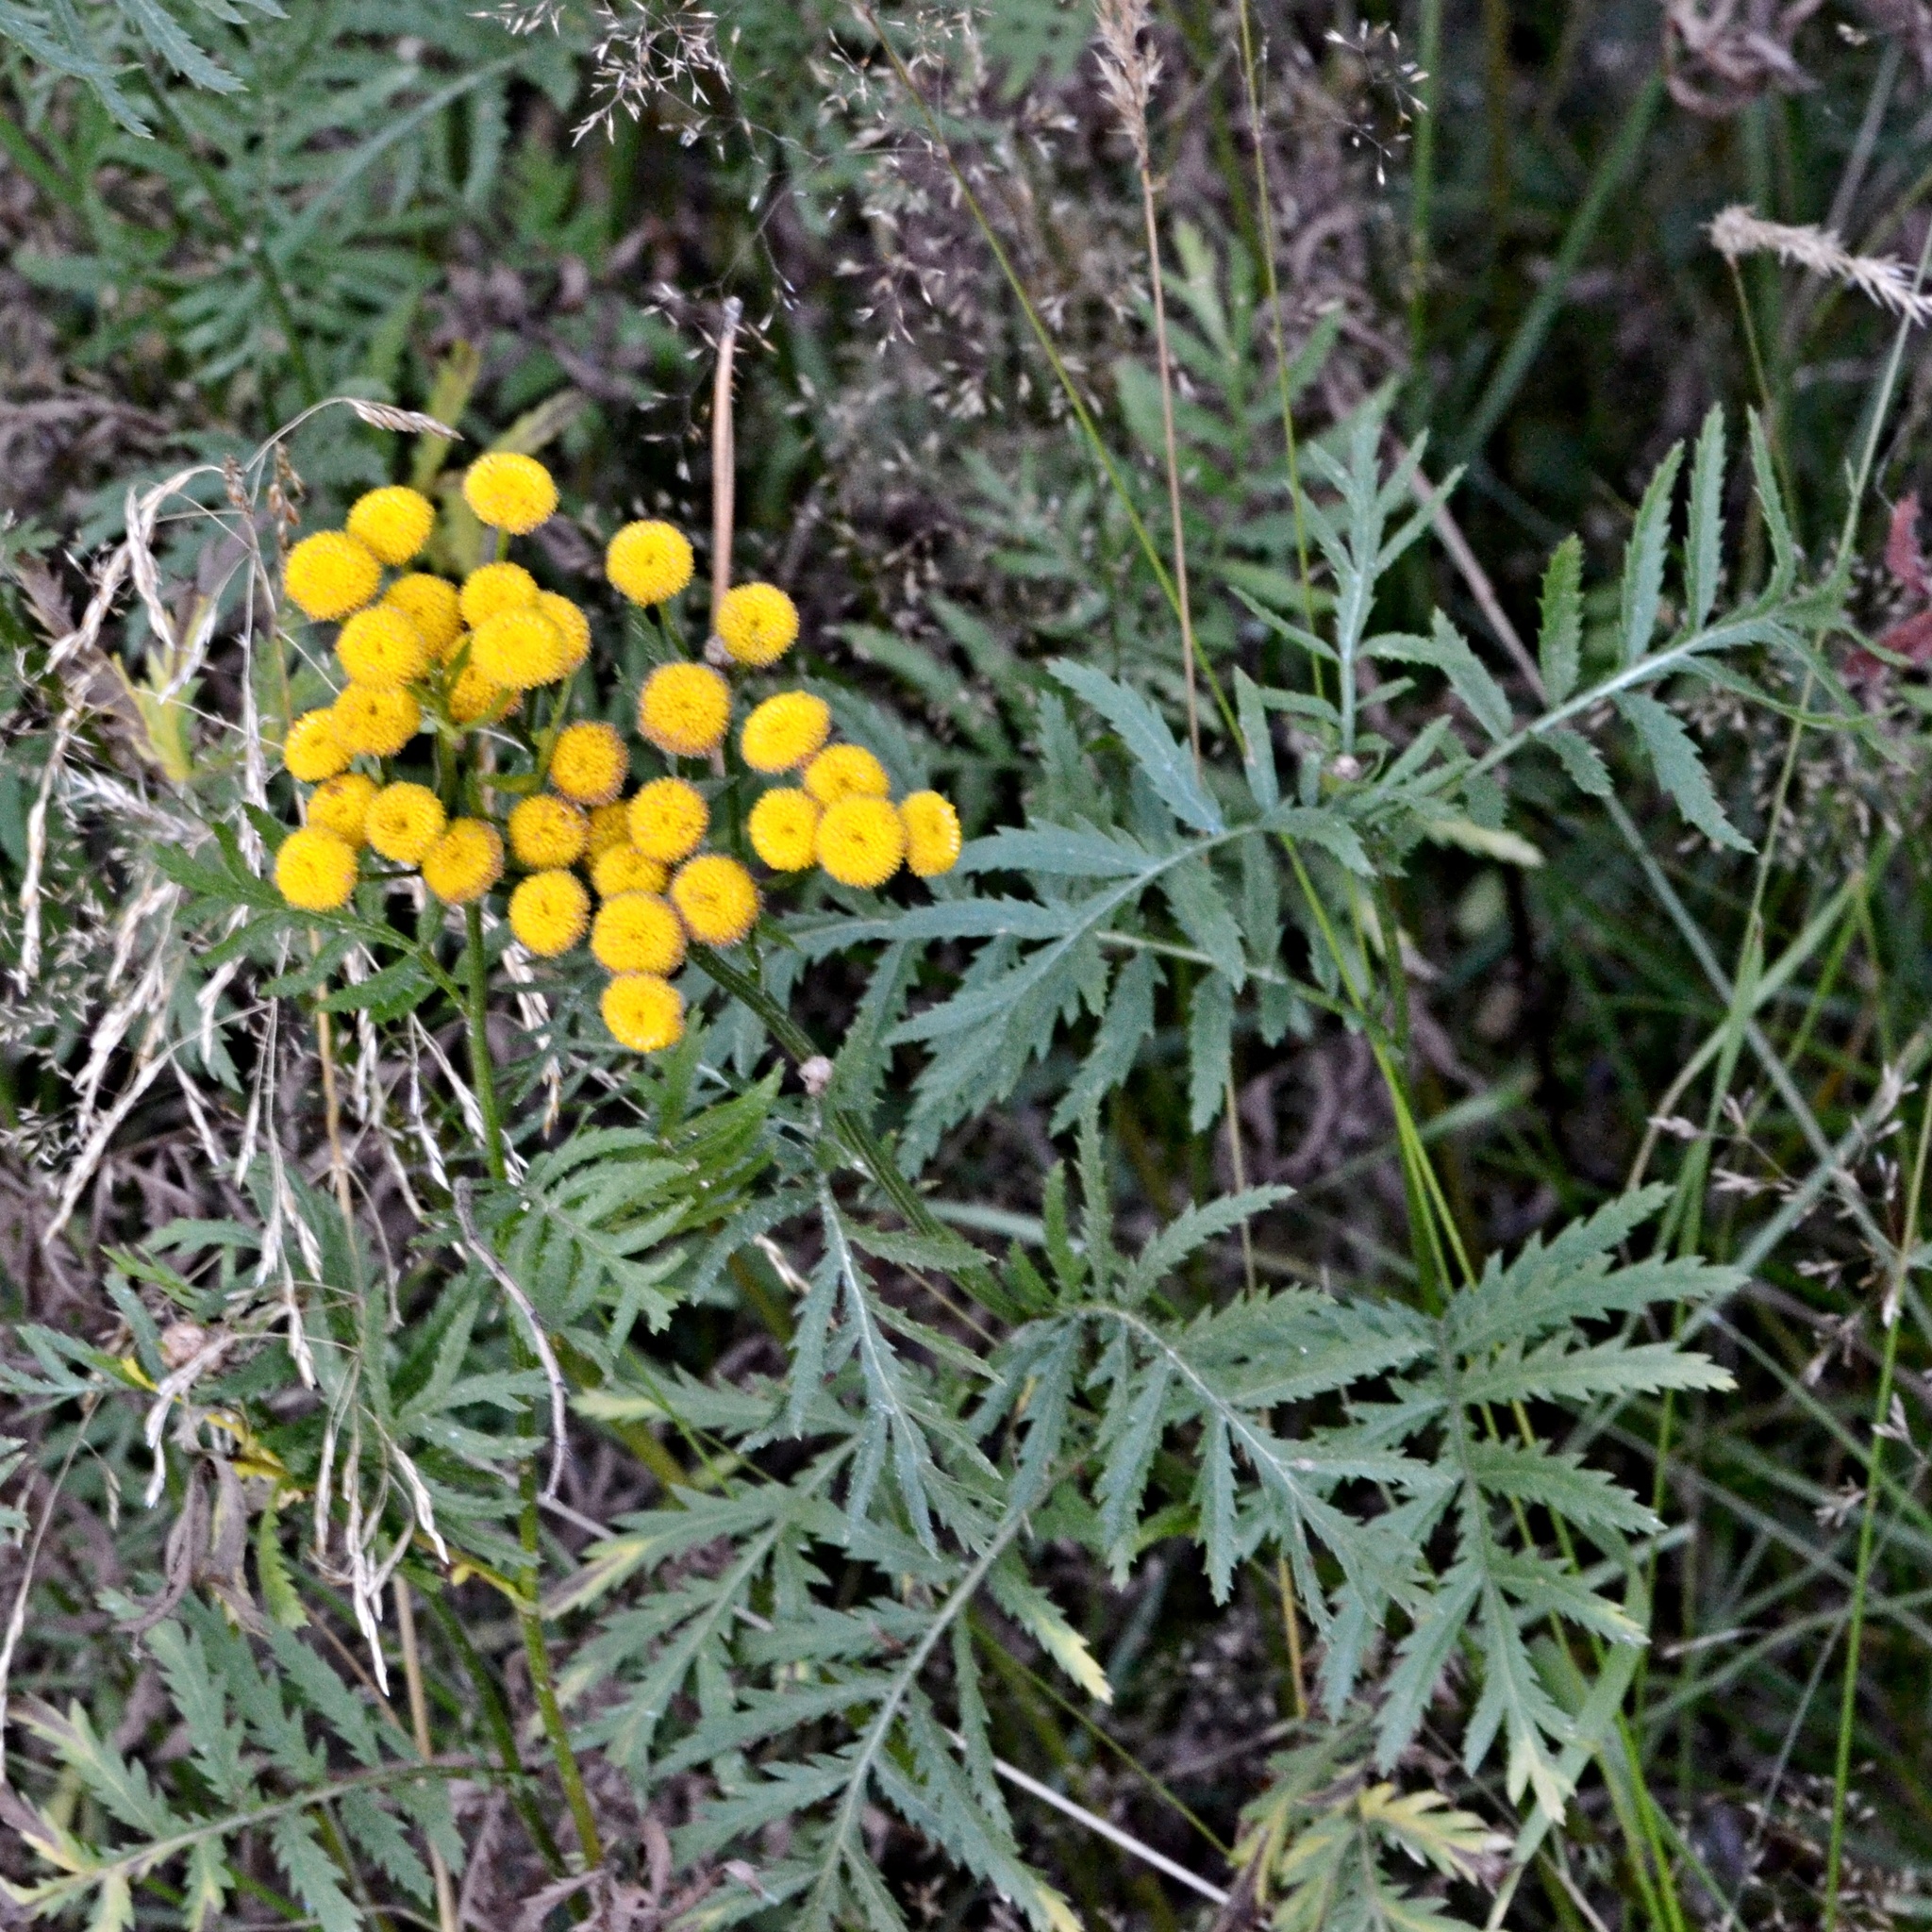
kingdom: Plantae
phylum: Tracheophyta
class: Magnoliopsida
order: Asterales
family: Asteraceae
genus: Tanacetum
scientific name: Tanacetum vulgare
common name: Common tansy
